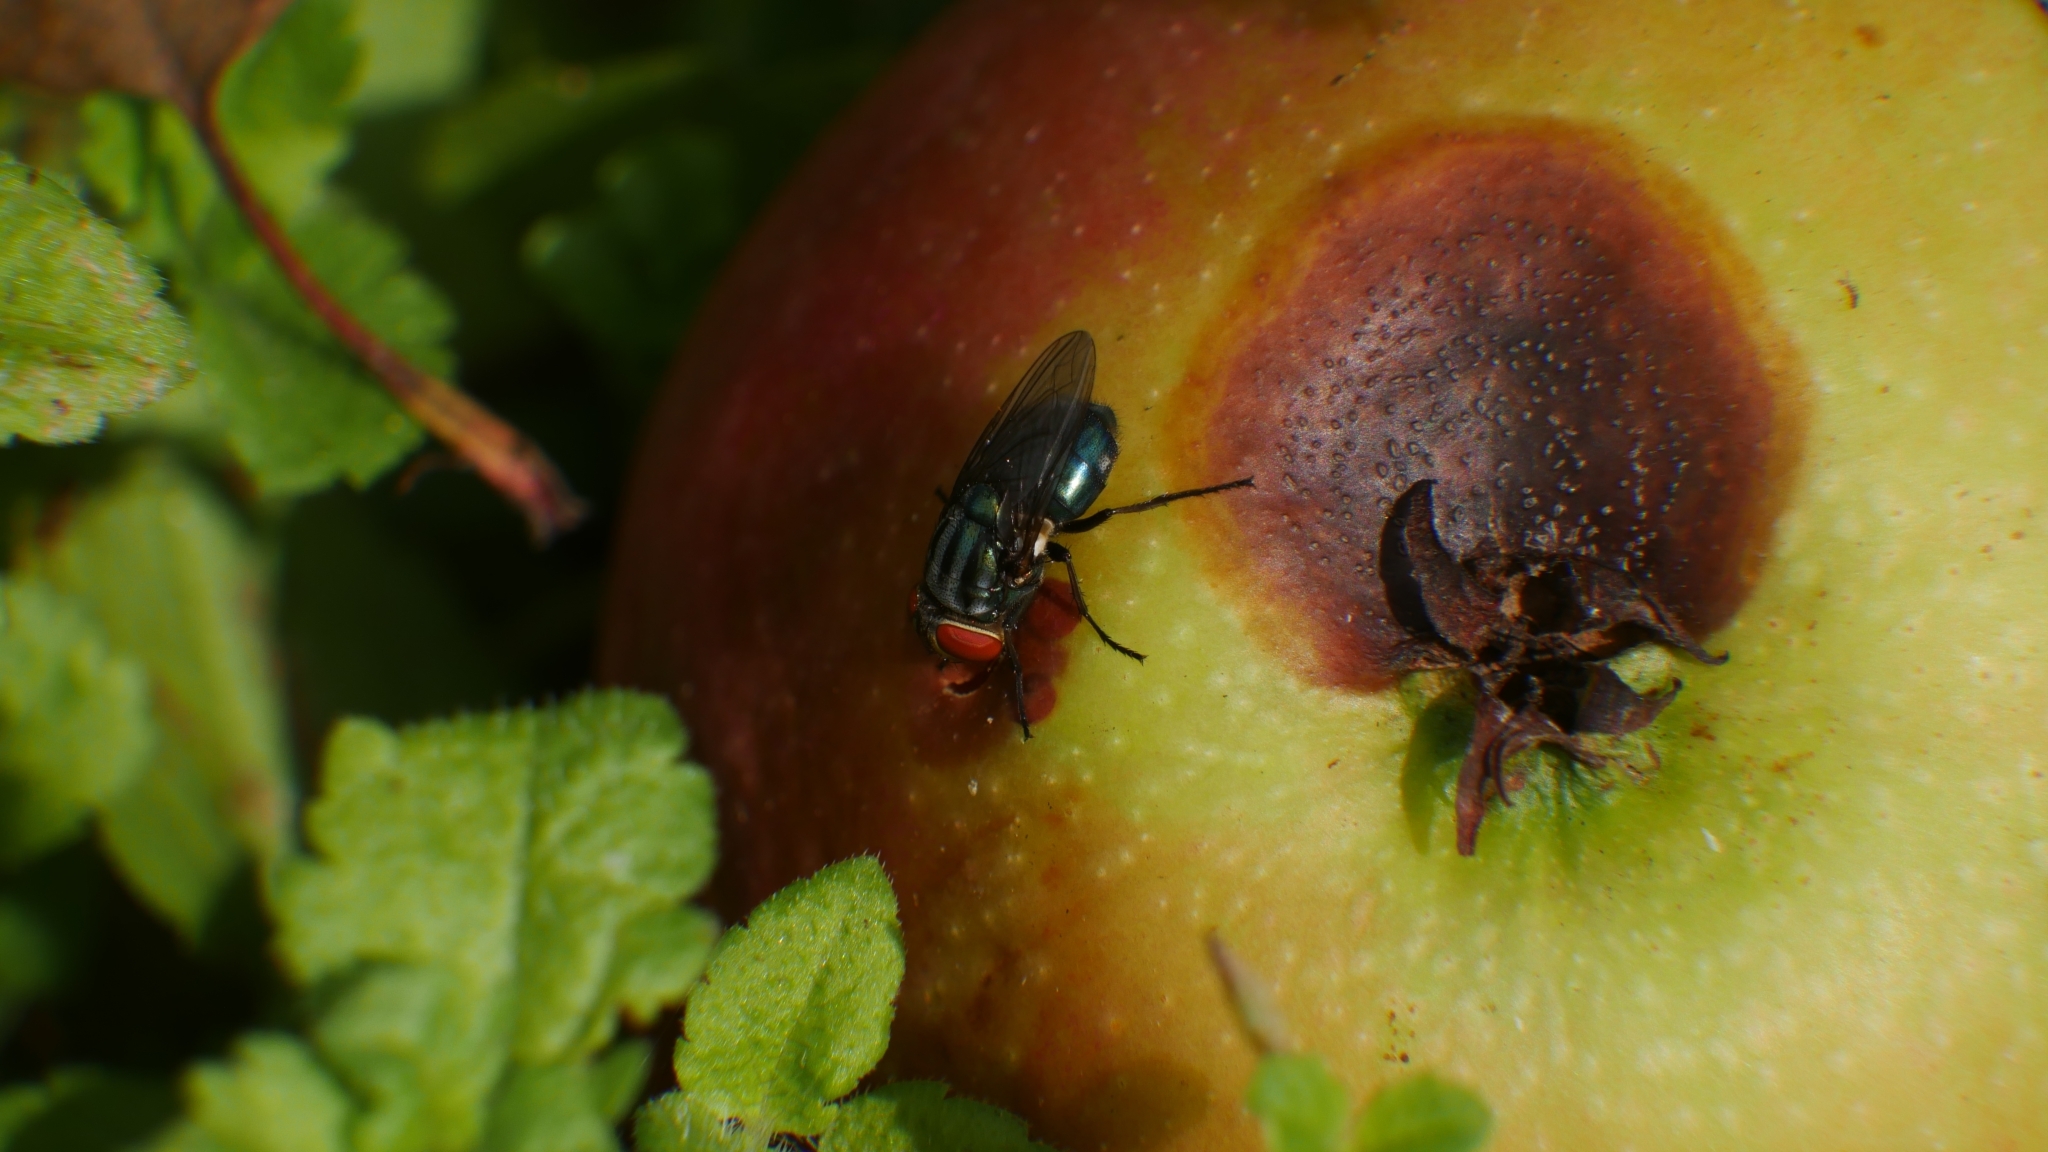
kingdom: Animalia
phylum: Arthropoda
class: Insecta
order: Diptera
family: Calliphoridae
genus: Cochliomyia
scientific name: Cochliomyia macellaria
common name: Secondary screwworm
